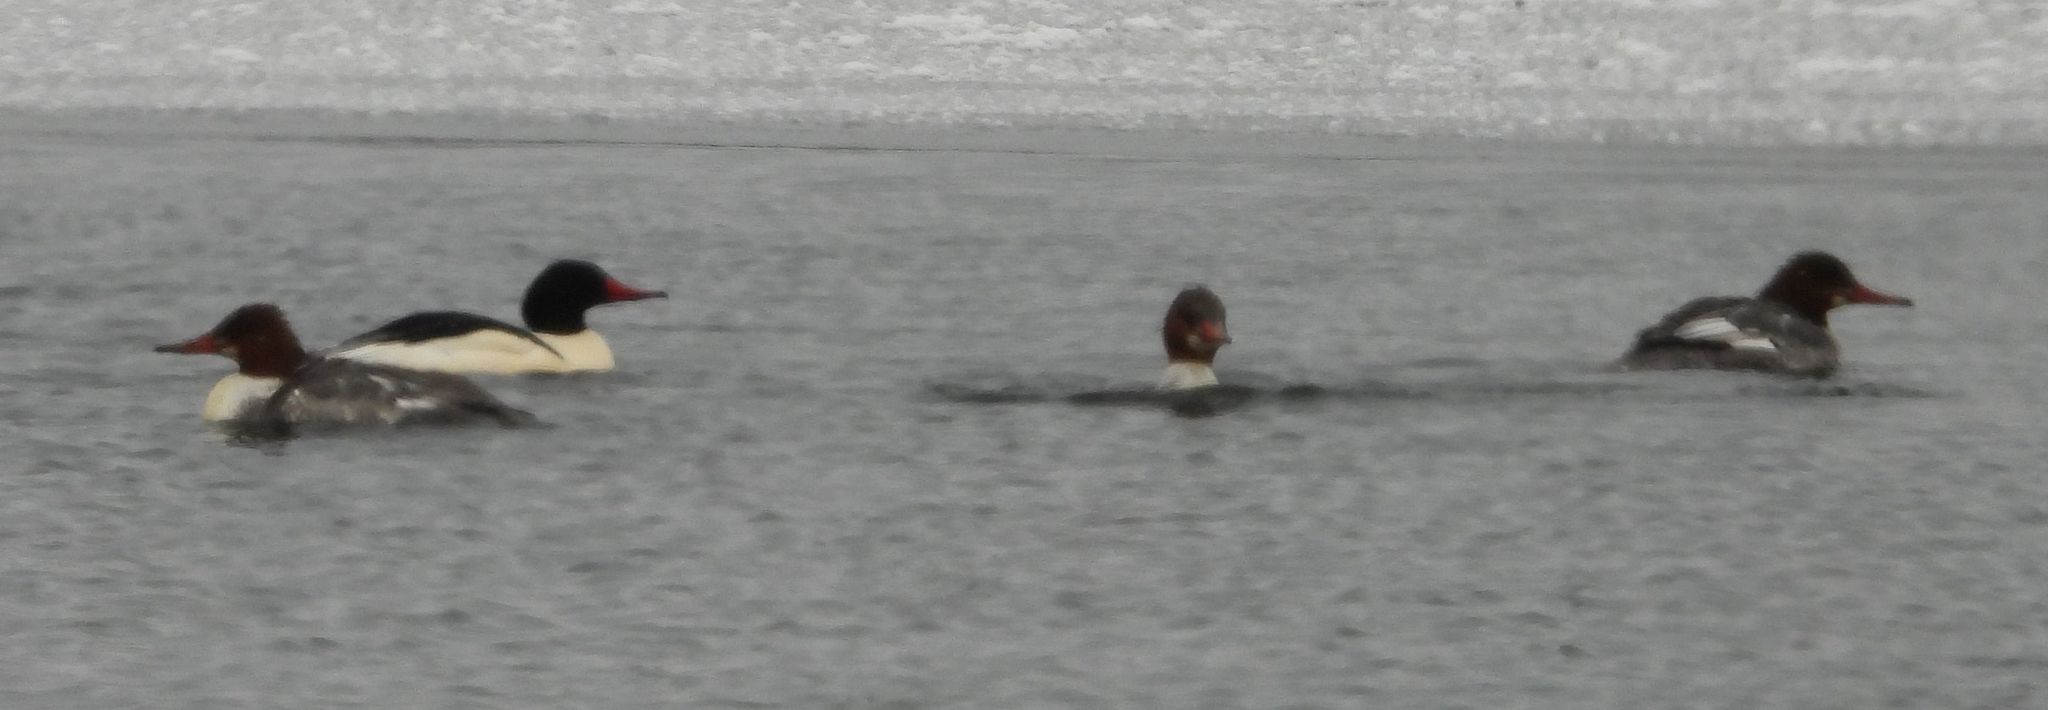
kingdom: Animalia
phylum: Chordata
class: Aves
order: Anseriformes
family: Anatidae
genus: Mergus
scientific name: Mergus merganser
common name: Common merganser
